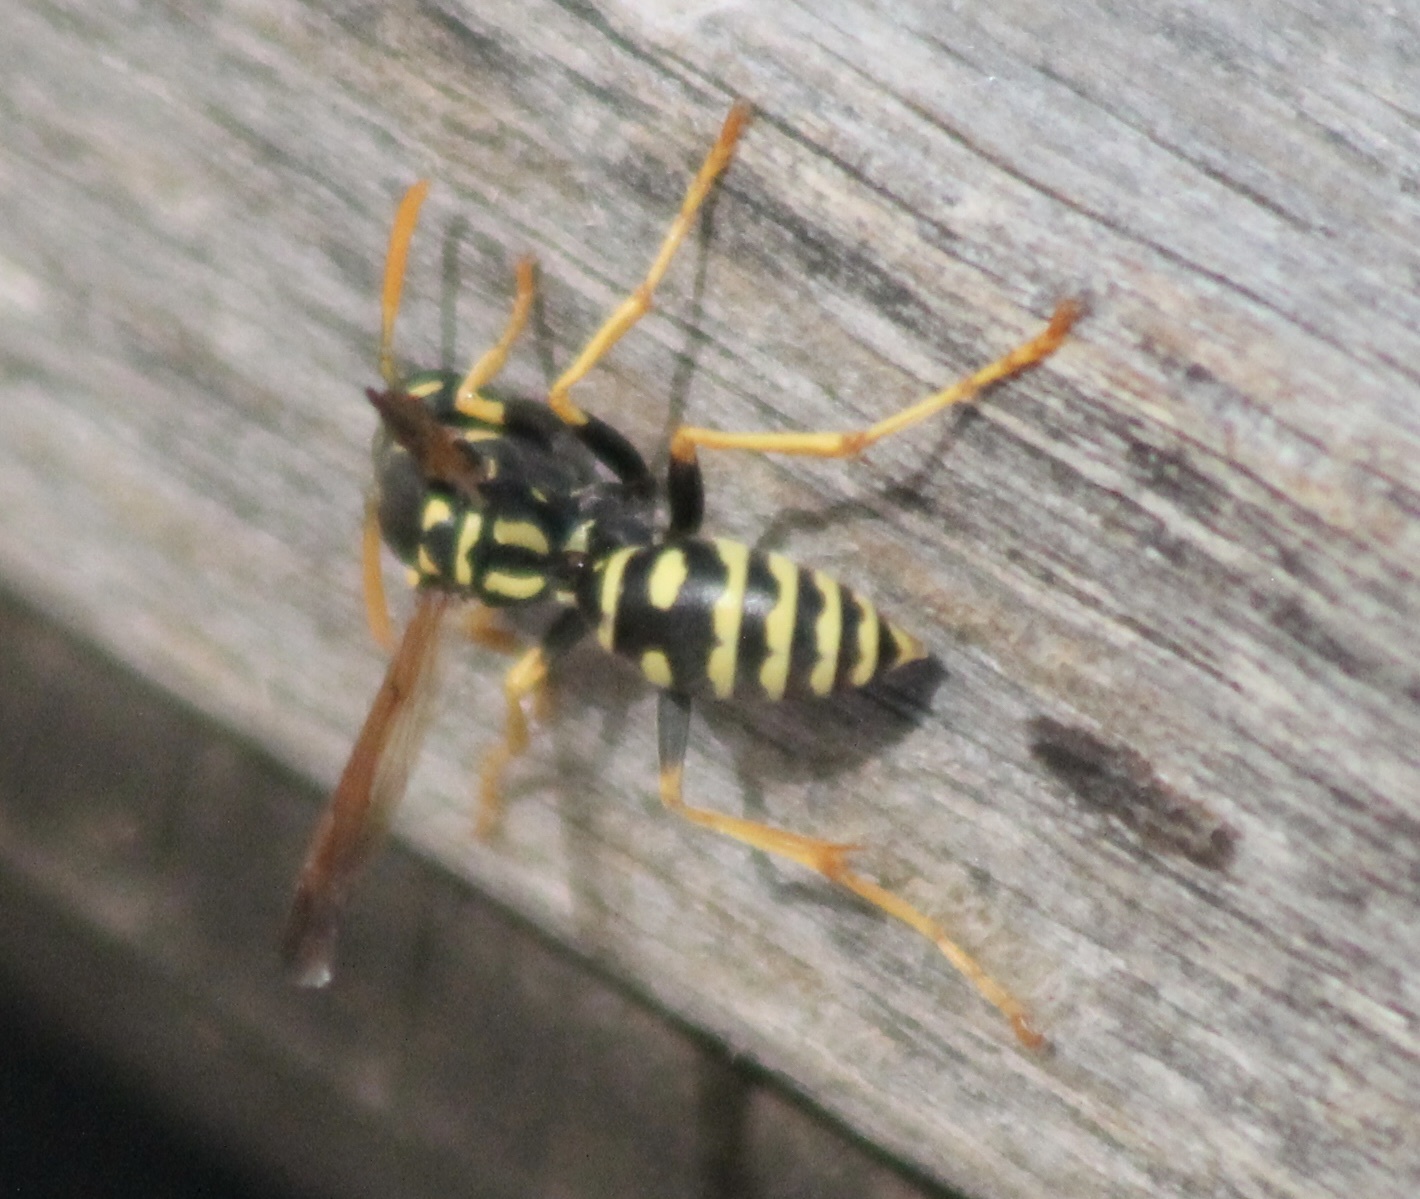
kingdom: Animalia
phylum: Arthropoda
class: Insecta
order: Hymenoptera
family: Eumenidae
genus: Polistes
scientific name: Polistes dominula
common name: Paper wasp
